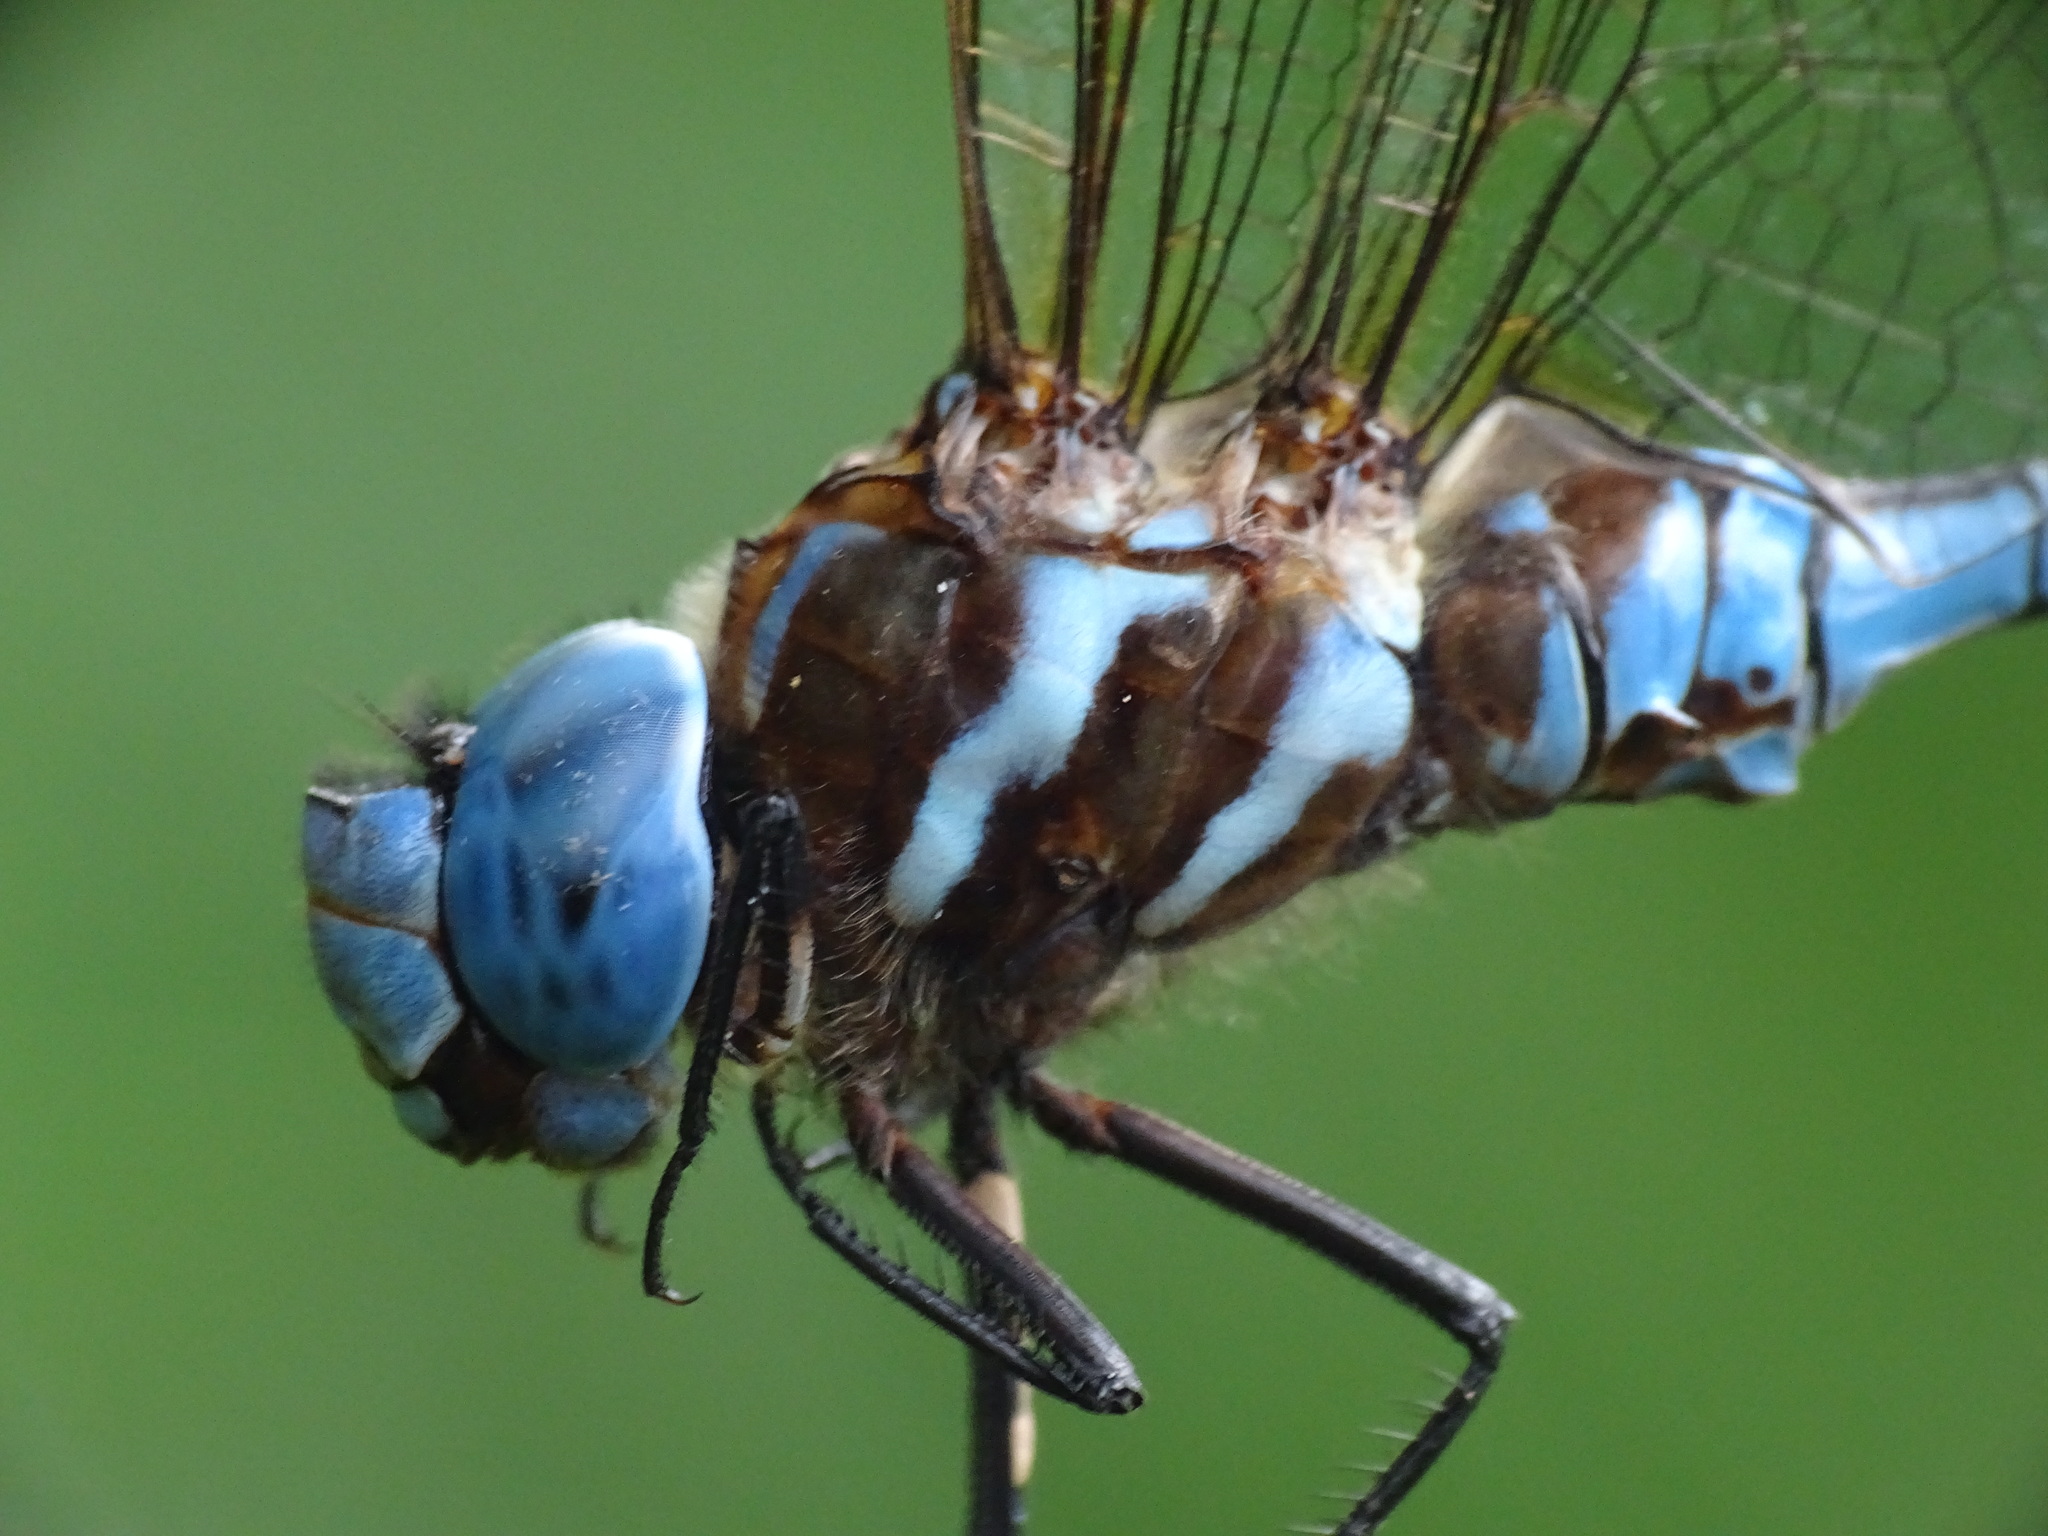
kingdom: Animalia
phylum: Arthropoda
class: Insecta
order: Odonata
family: Aeshnidae
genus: Rhionaeschna
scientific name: Rhionaeschna mutata
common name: Spatterdock darner
